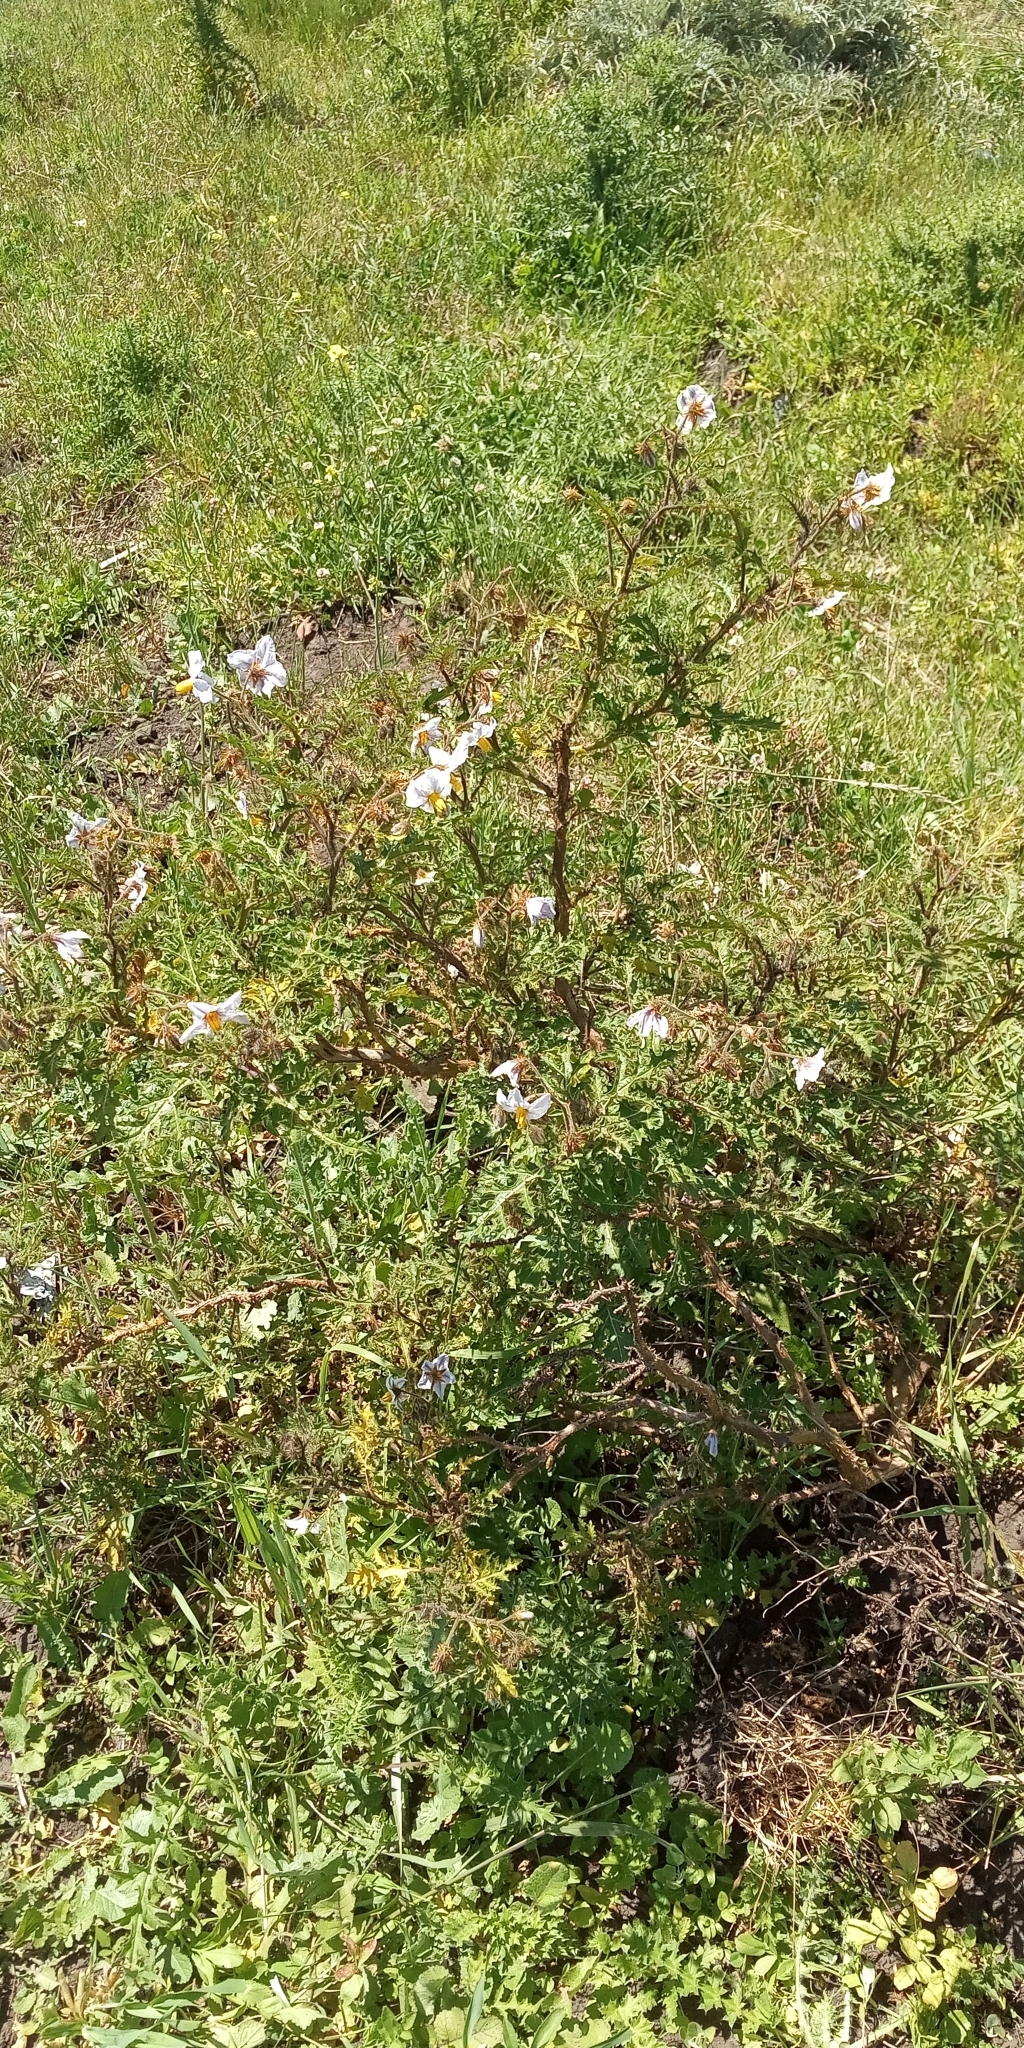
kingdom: Plantae
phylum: Tracheophyta
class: Magnoliopsida
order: Solanales
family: Solanaceae
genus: Solanum
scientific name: Solanum sisymbriifolium
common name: Red buffalo-bur
